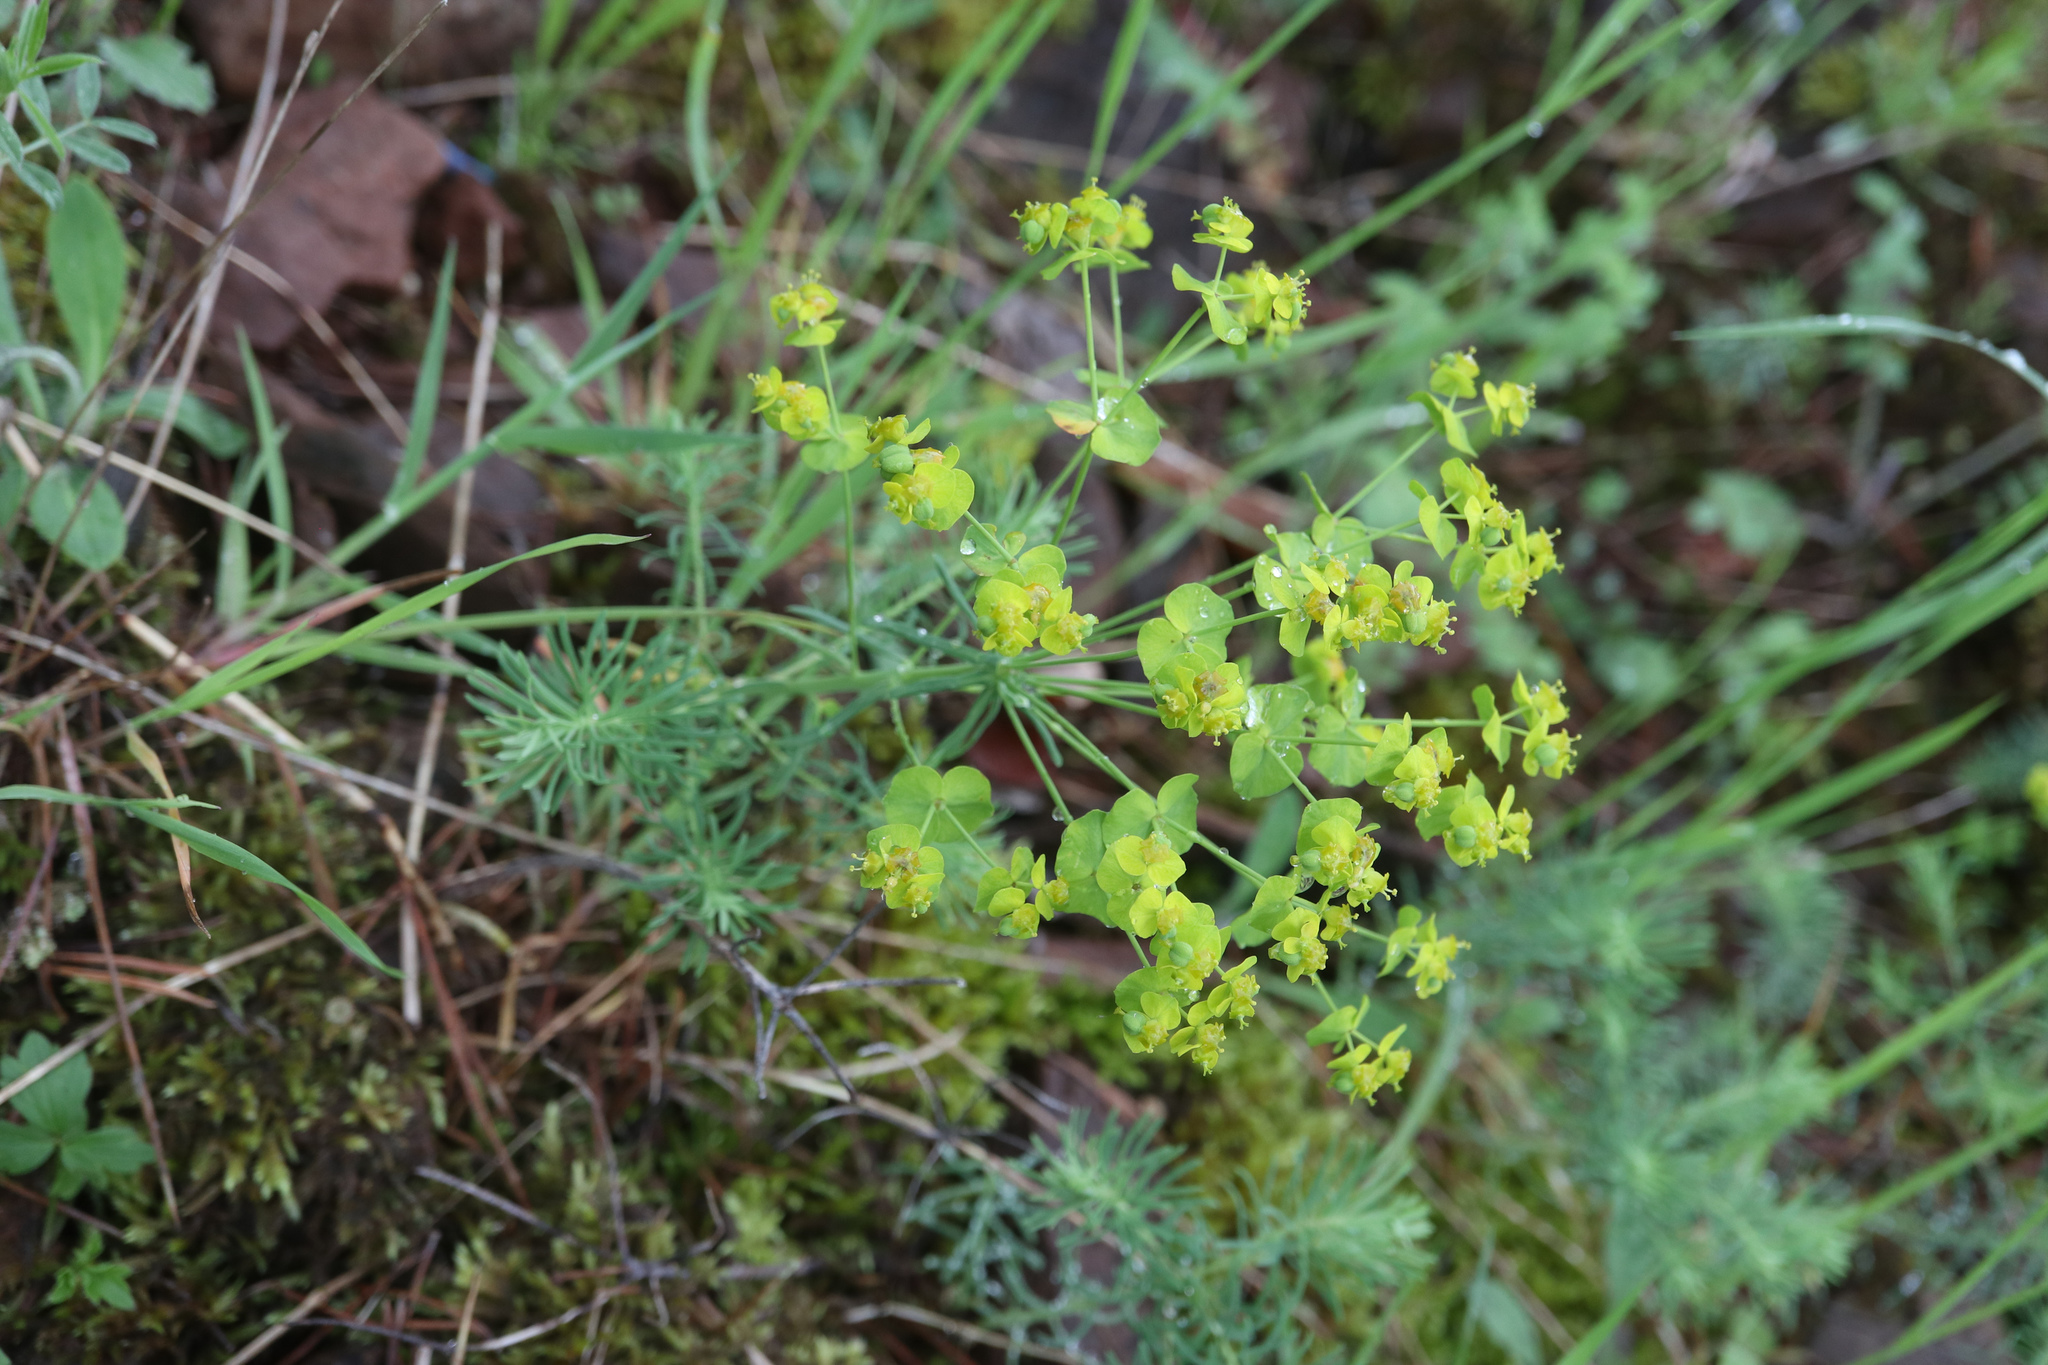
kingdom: Plantae
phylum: Tracheophyta
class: Magnoliopsida
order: Malpighiales
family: Euphorbiaceae
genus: Euphorbia
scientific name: Euphorbia cyparissias
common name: Cypress spurge
